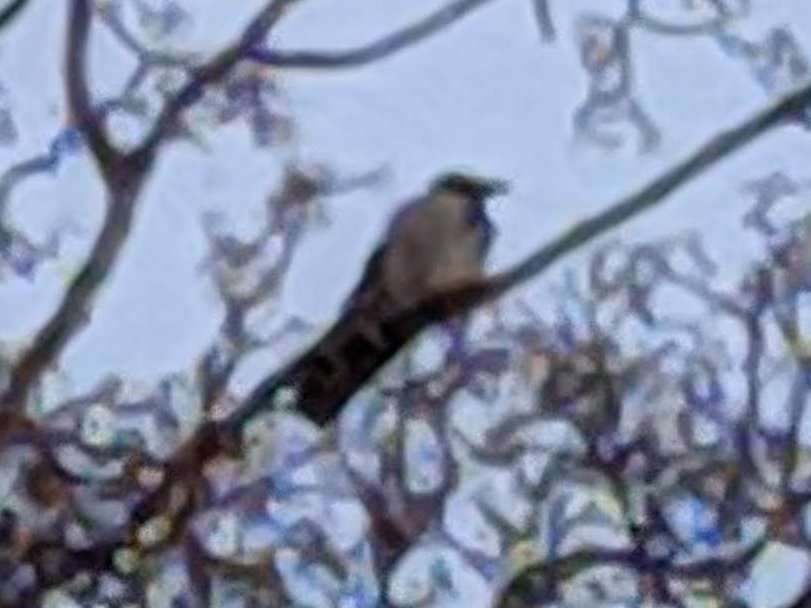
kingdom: Animalia
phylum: Chordata
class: Aves
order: Passeriformes
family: Corvidae
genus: Corvus
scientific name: Corvus cornix
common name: Hooded crow
